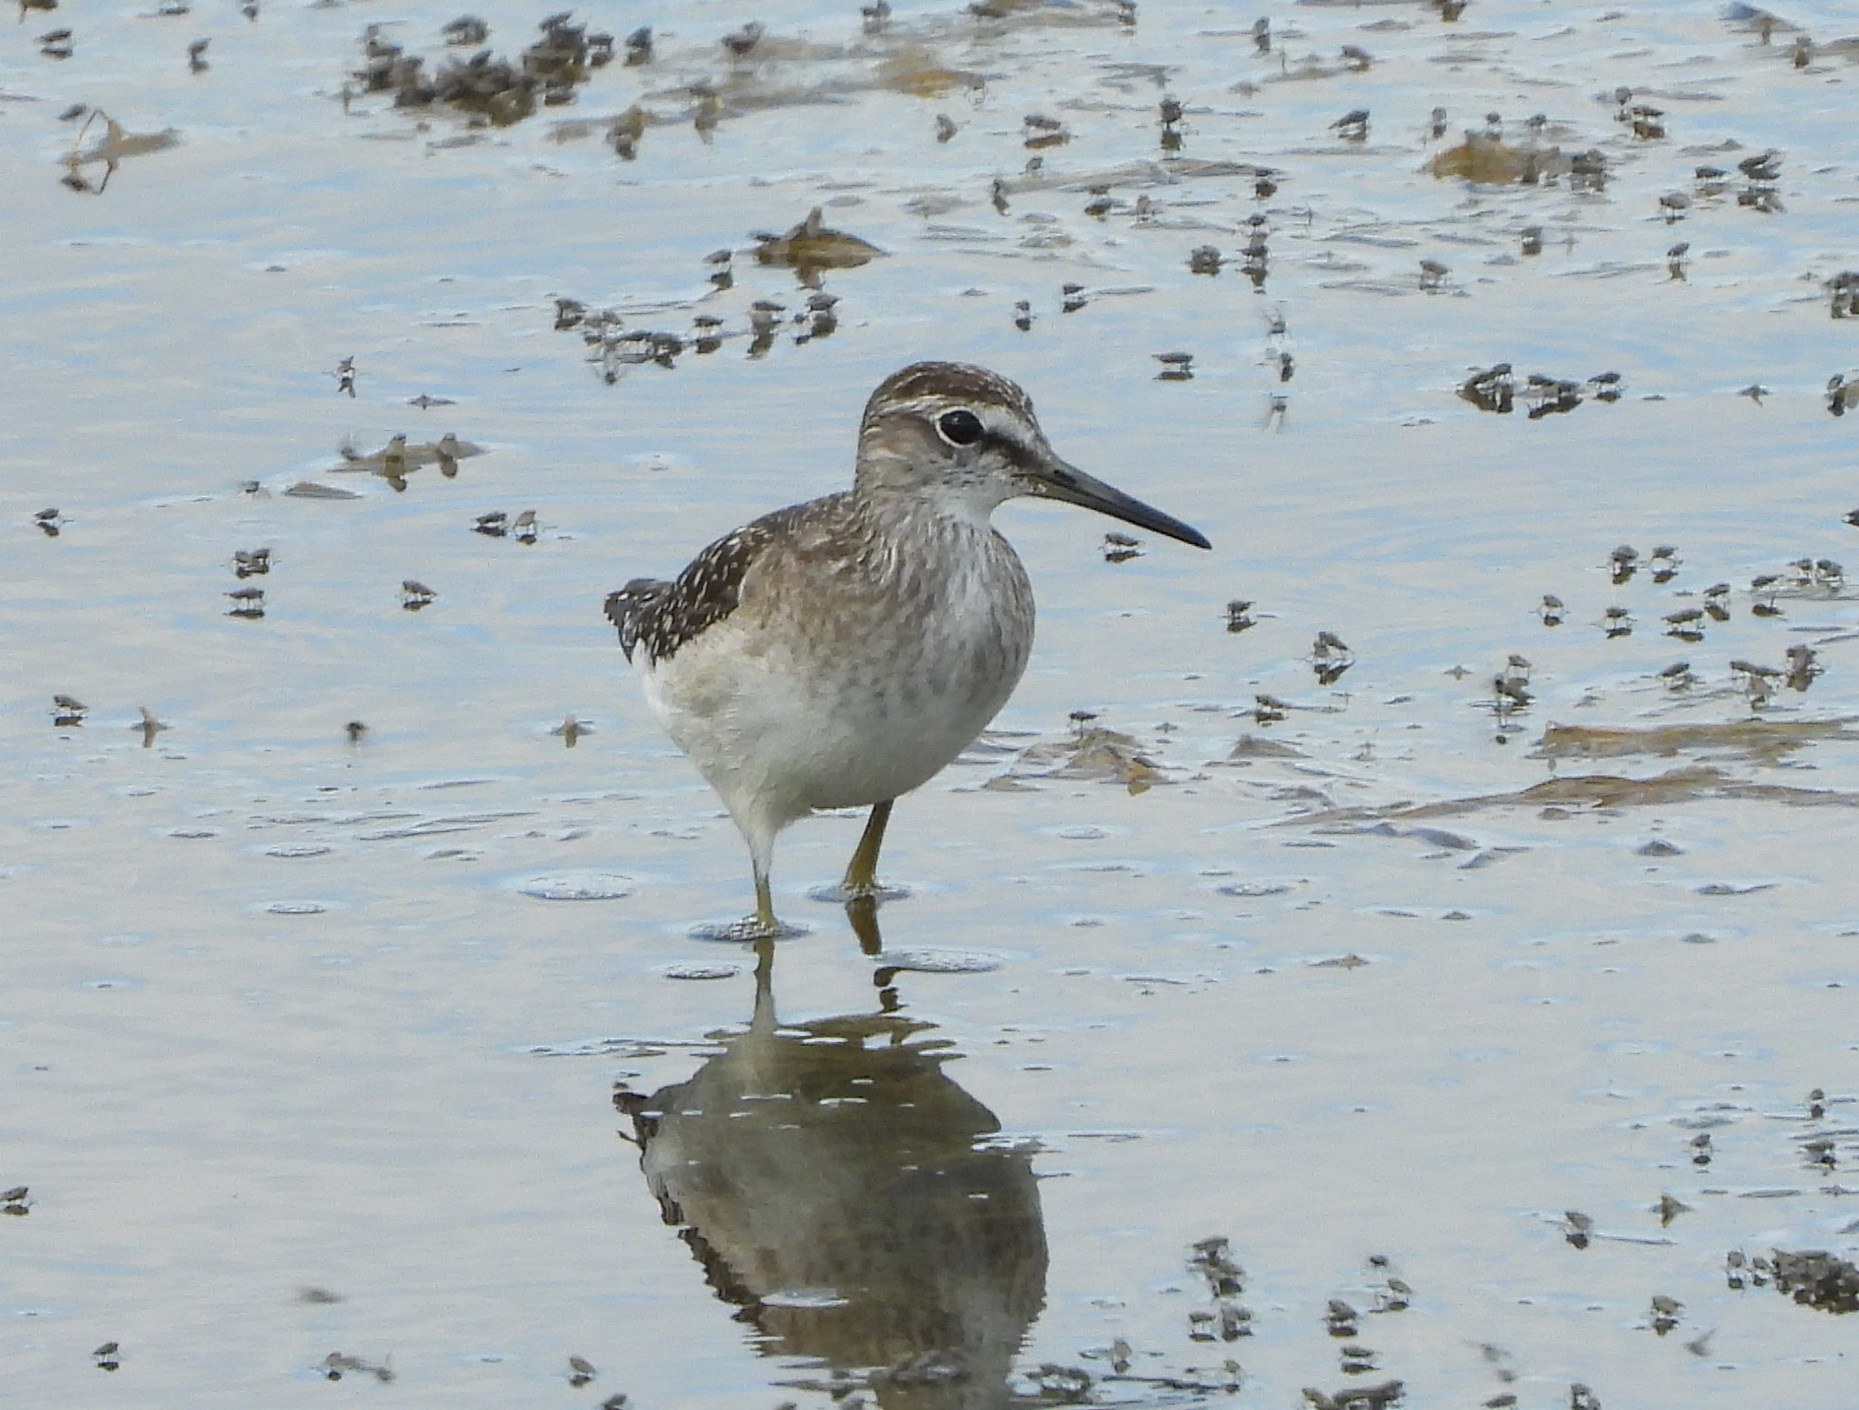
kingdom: Animalia
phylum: Chordata
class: Aves
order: Charadriiformes
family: Scolopacidae
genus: Tringa
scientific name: Tringa glareola
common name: Wood sandpiper
